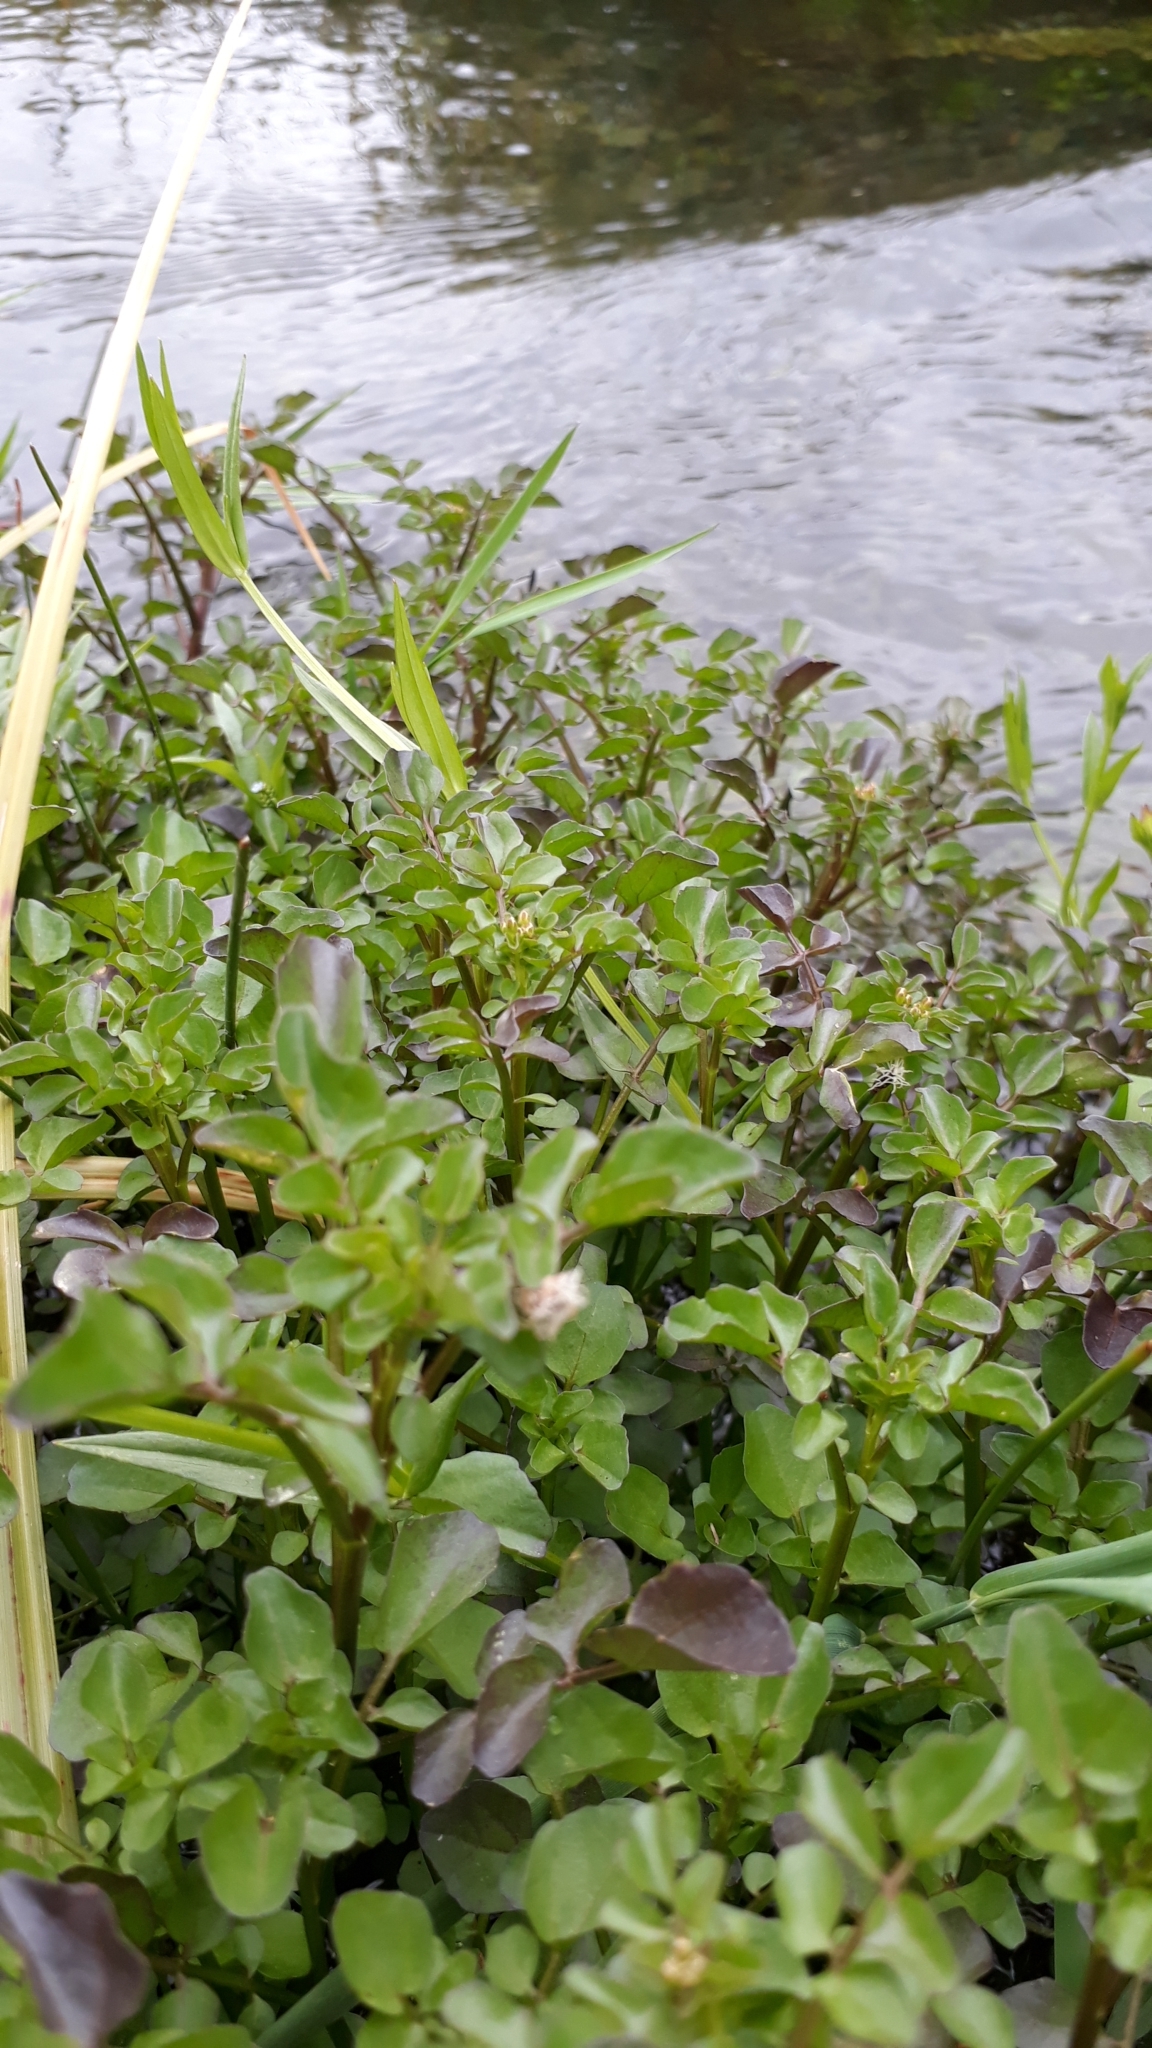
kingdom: Plantae
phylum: Tracheophyta
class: Magnoliopsida
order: Brassicales
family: Brassicaceae
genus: Nasturtium
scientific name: Nasturtium officinale
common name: Watercress
